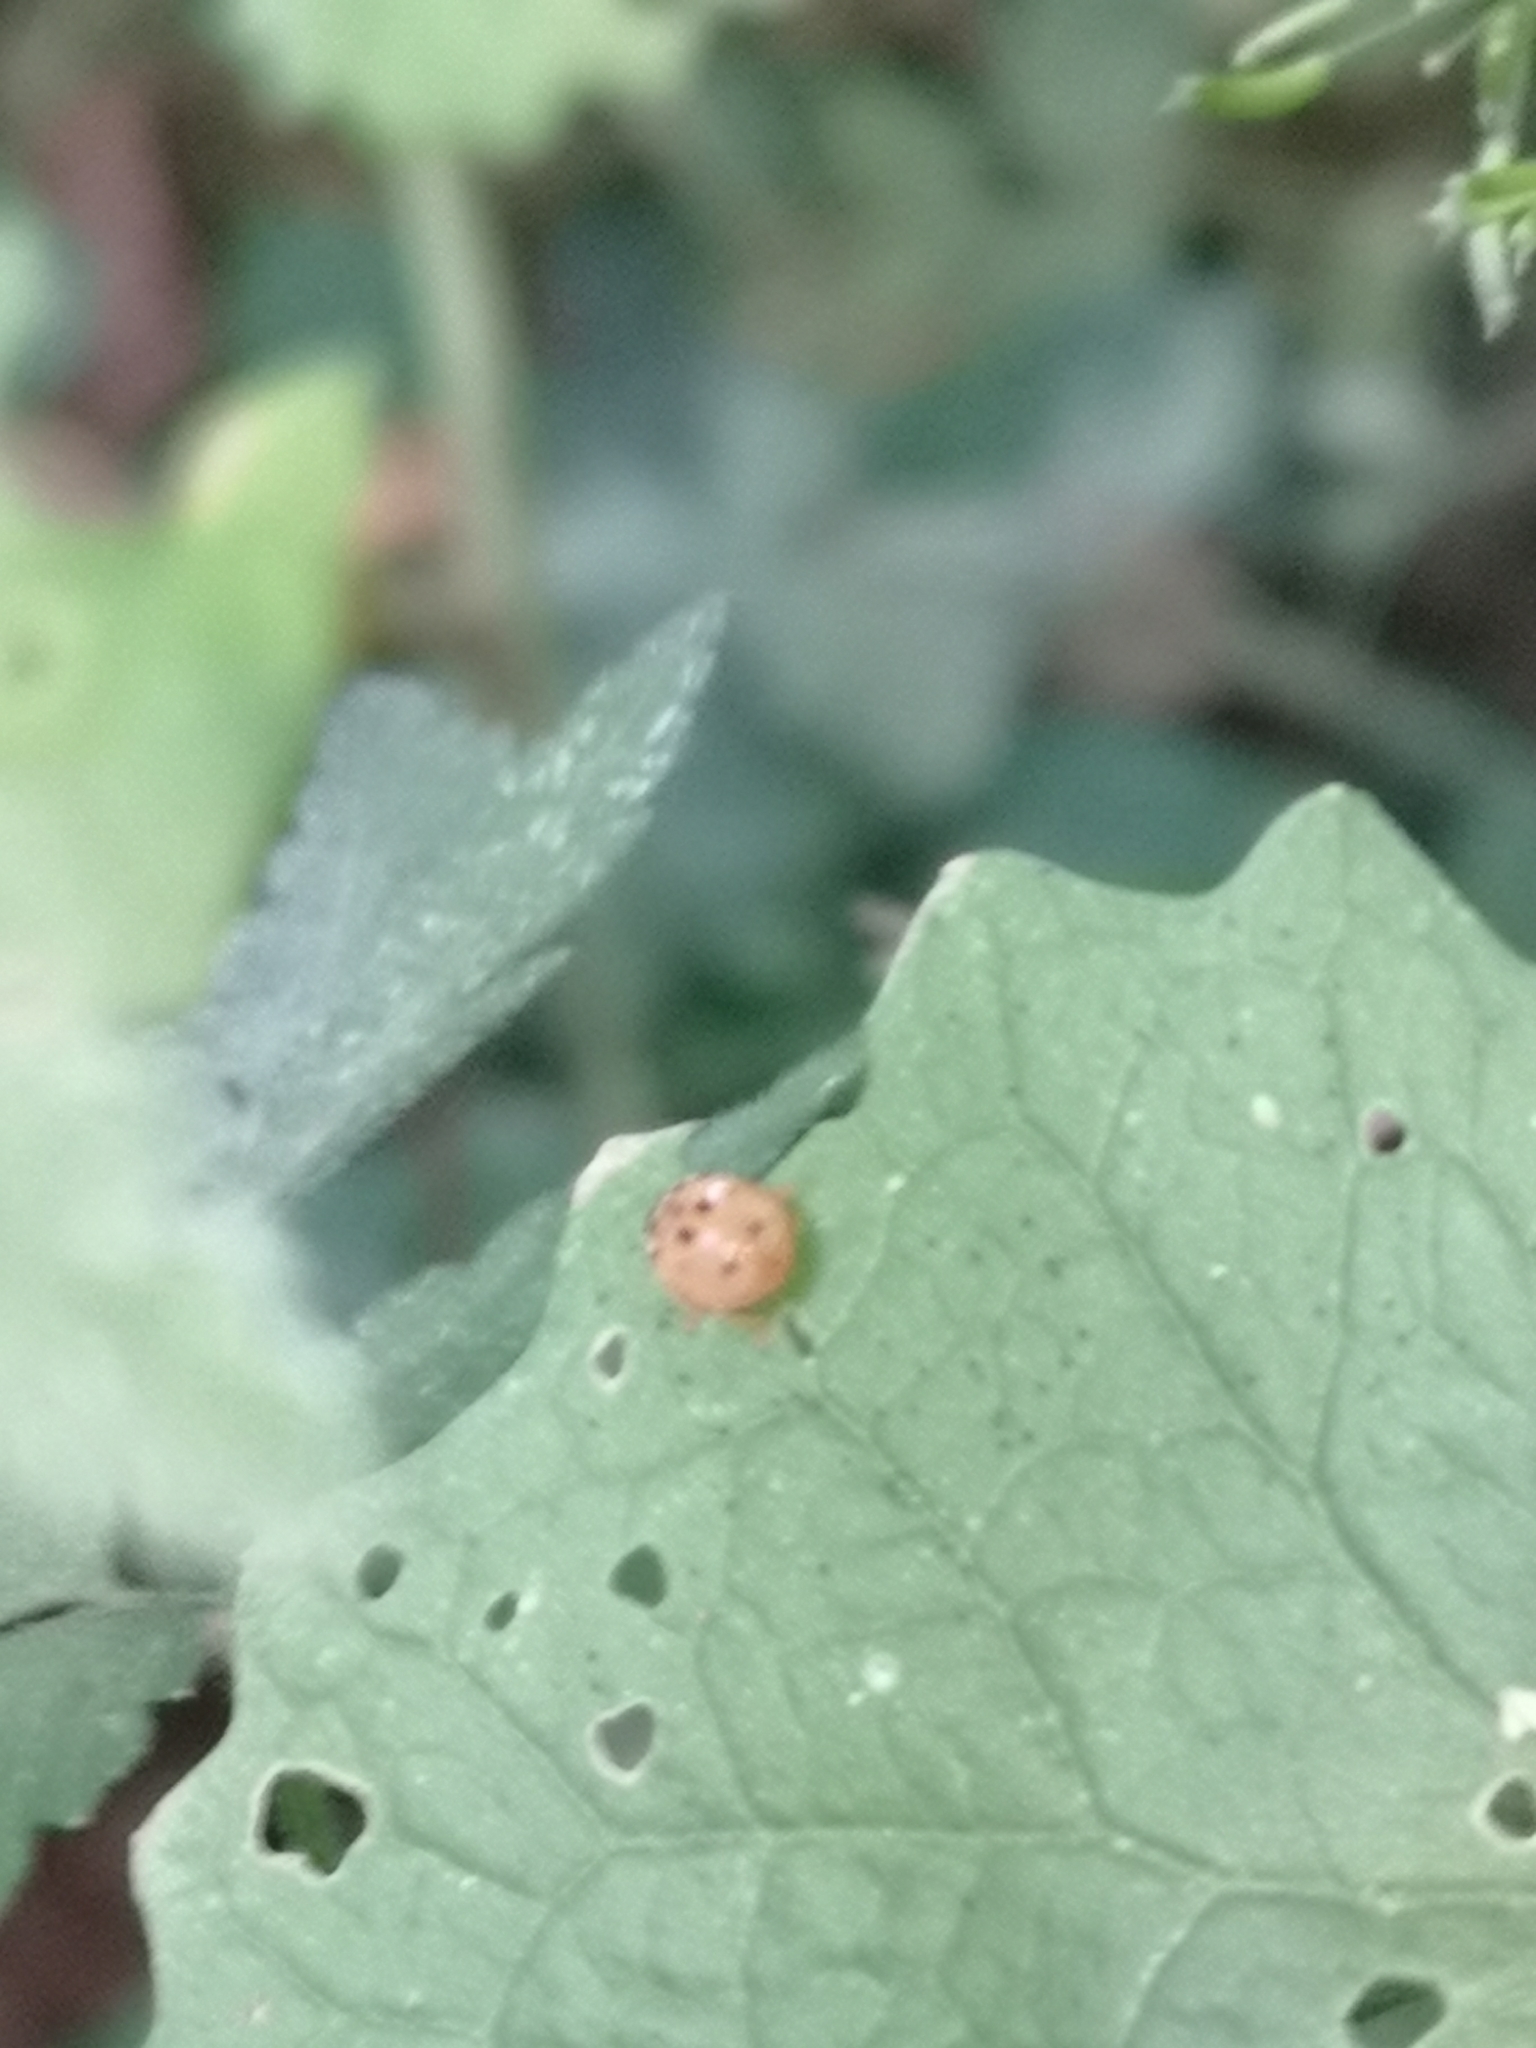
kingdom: Animalia
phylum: Arthropoda
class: Insecta
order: Coleoptera
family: Coccinellidae
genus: Adalia
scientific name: Adalia decempunctata
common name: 10-spot ladybird
